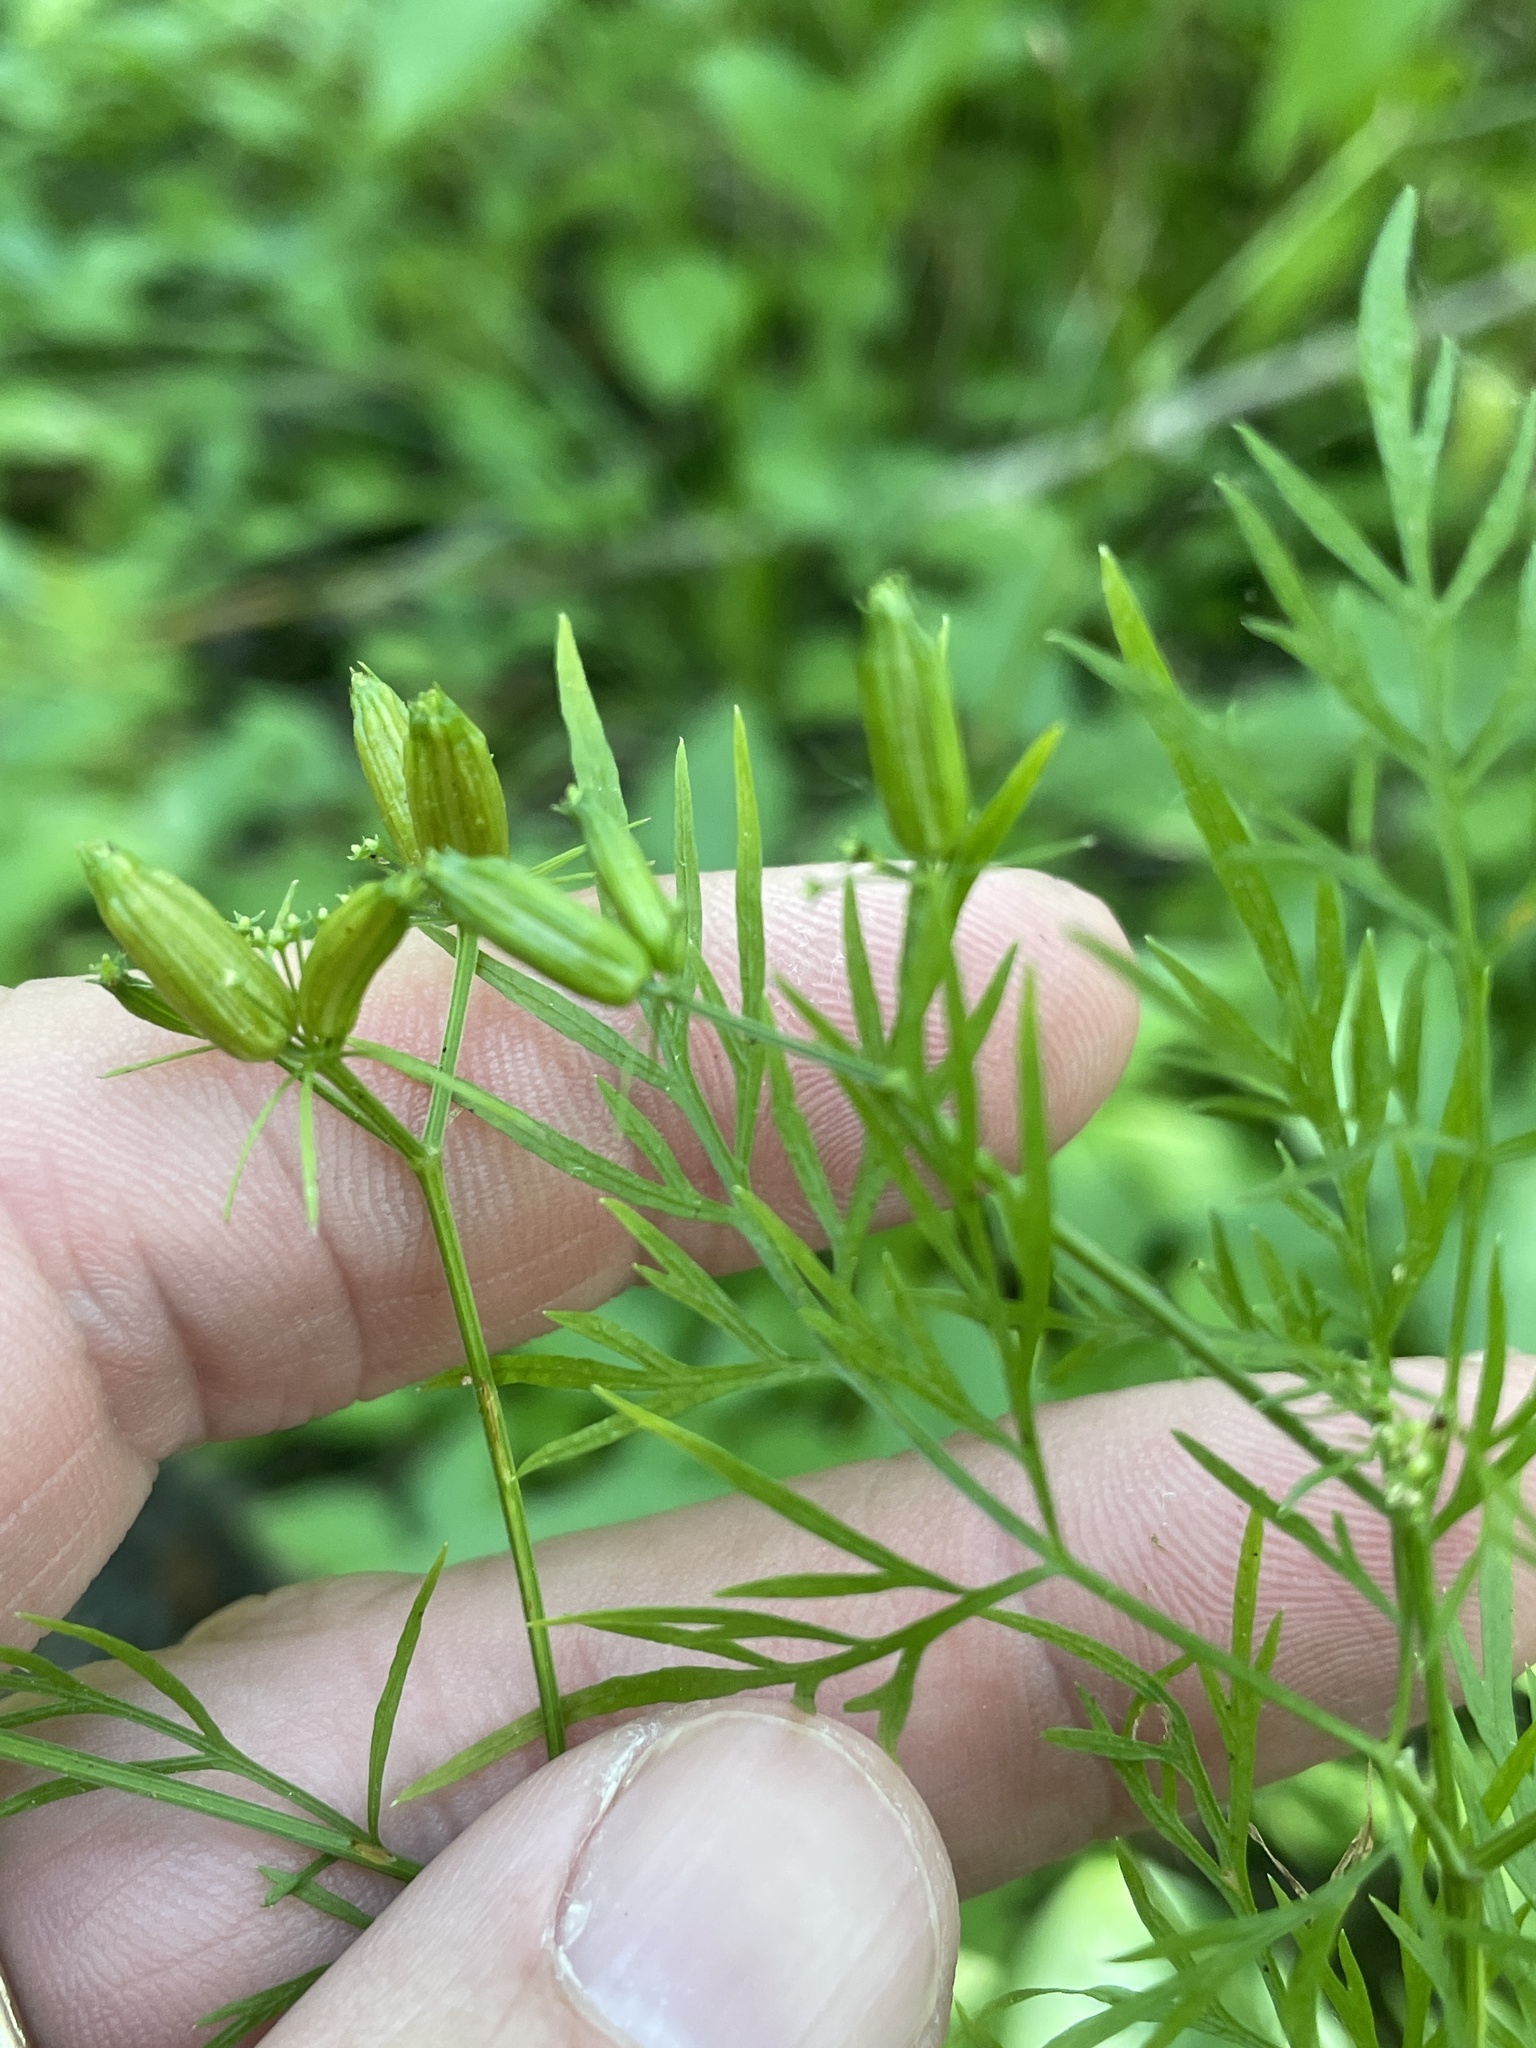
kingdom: Plantae
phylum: Tracheophyta
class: Magnoliopsida
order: Apiales
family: Apiaceae
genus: Trepocarpus
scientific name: Trepocarpus aethusae
